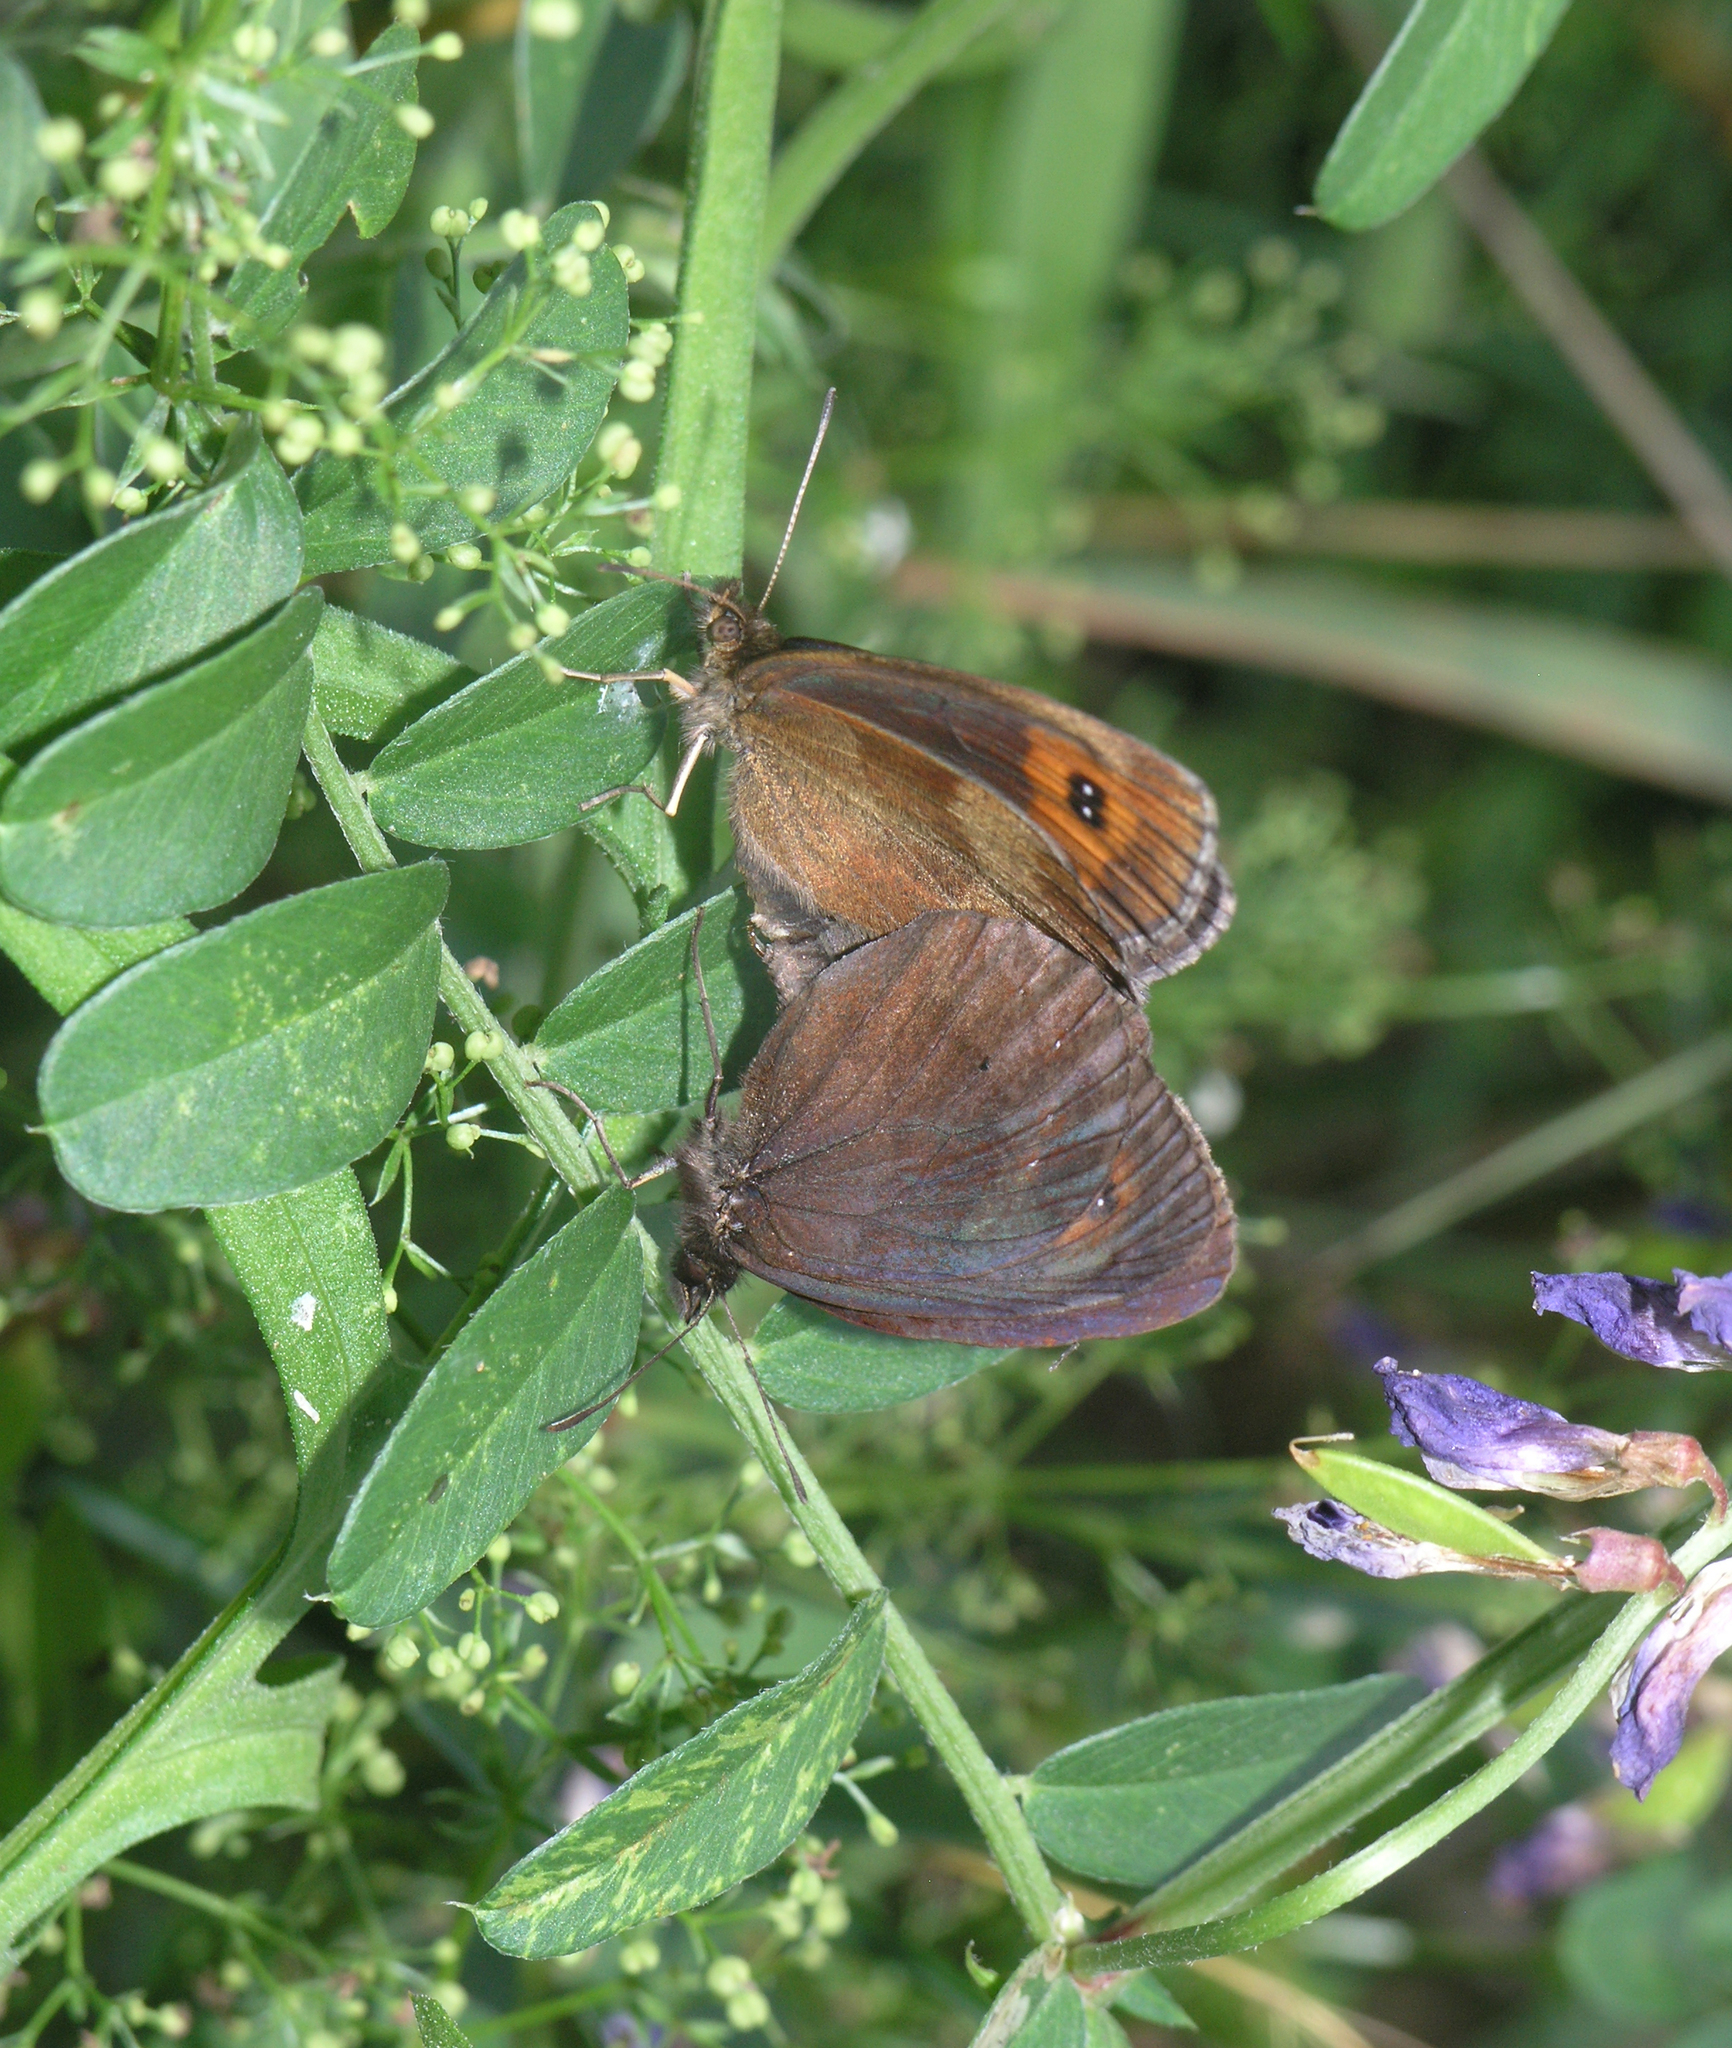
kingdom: Animalia
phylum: Arthropoda
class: Insecta
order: Lepidoptera
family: Nymphalidae
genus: Erebia
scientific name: Erebia aethiops
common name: Scotch argus
